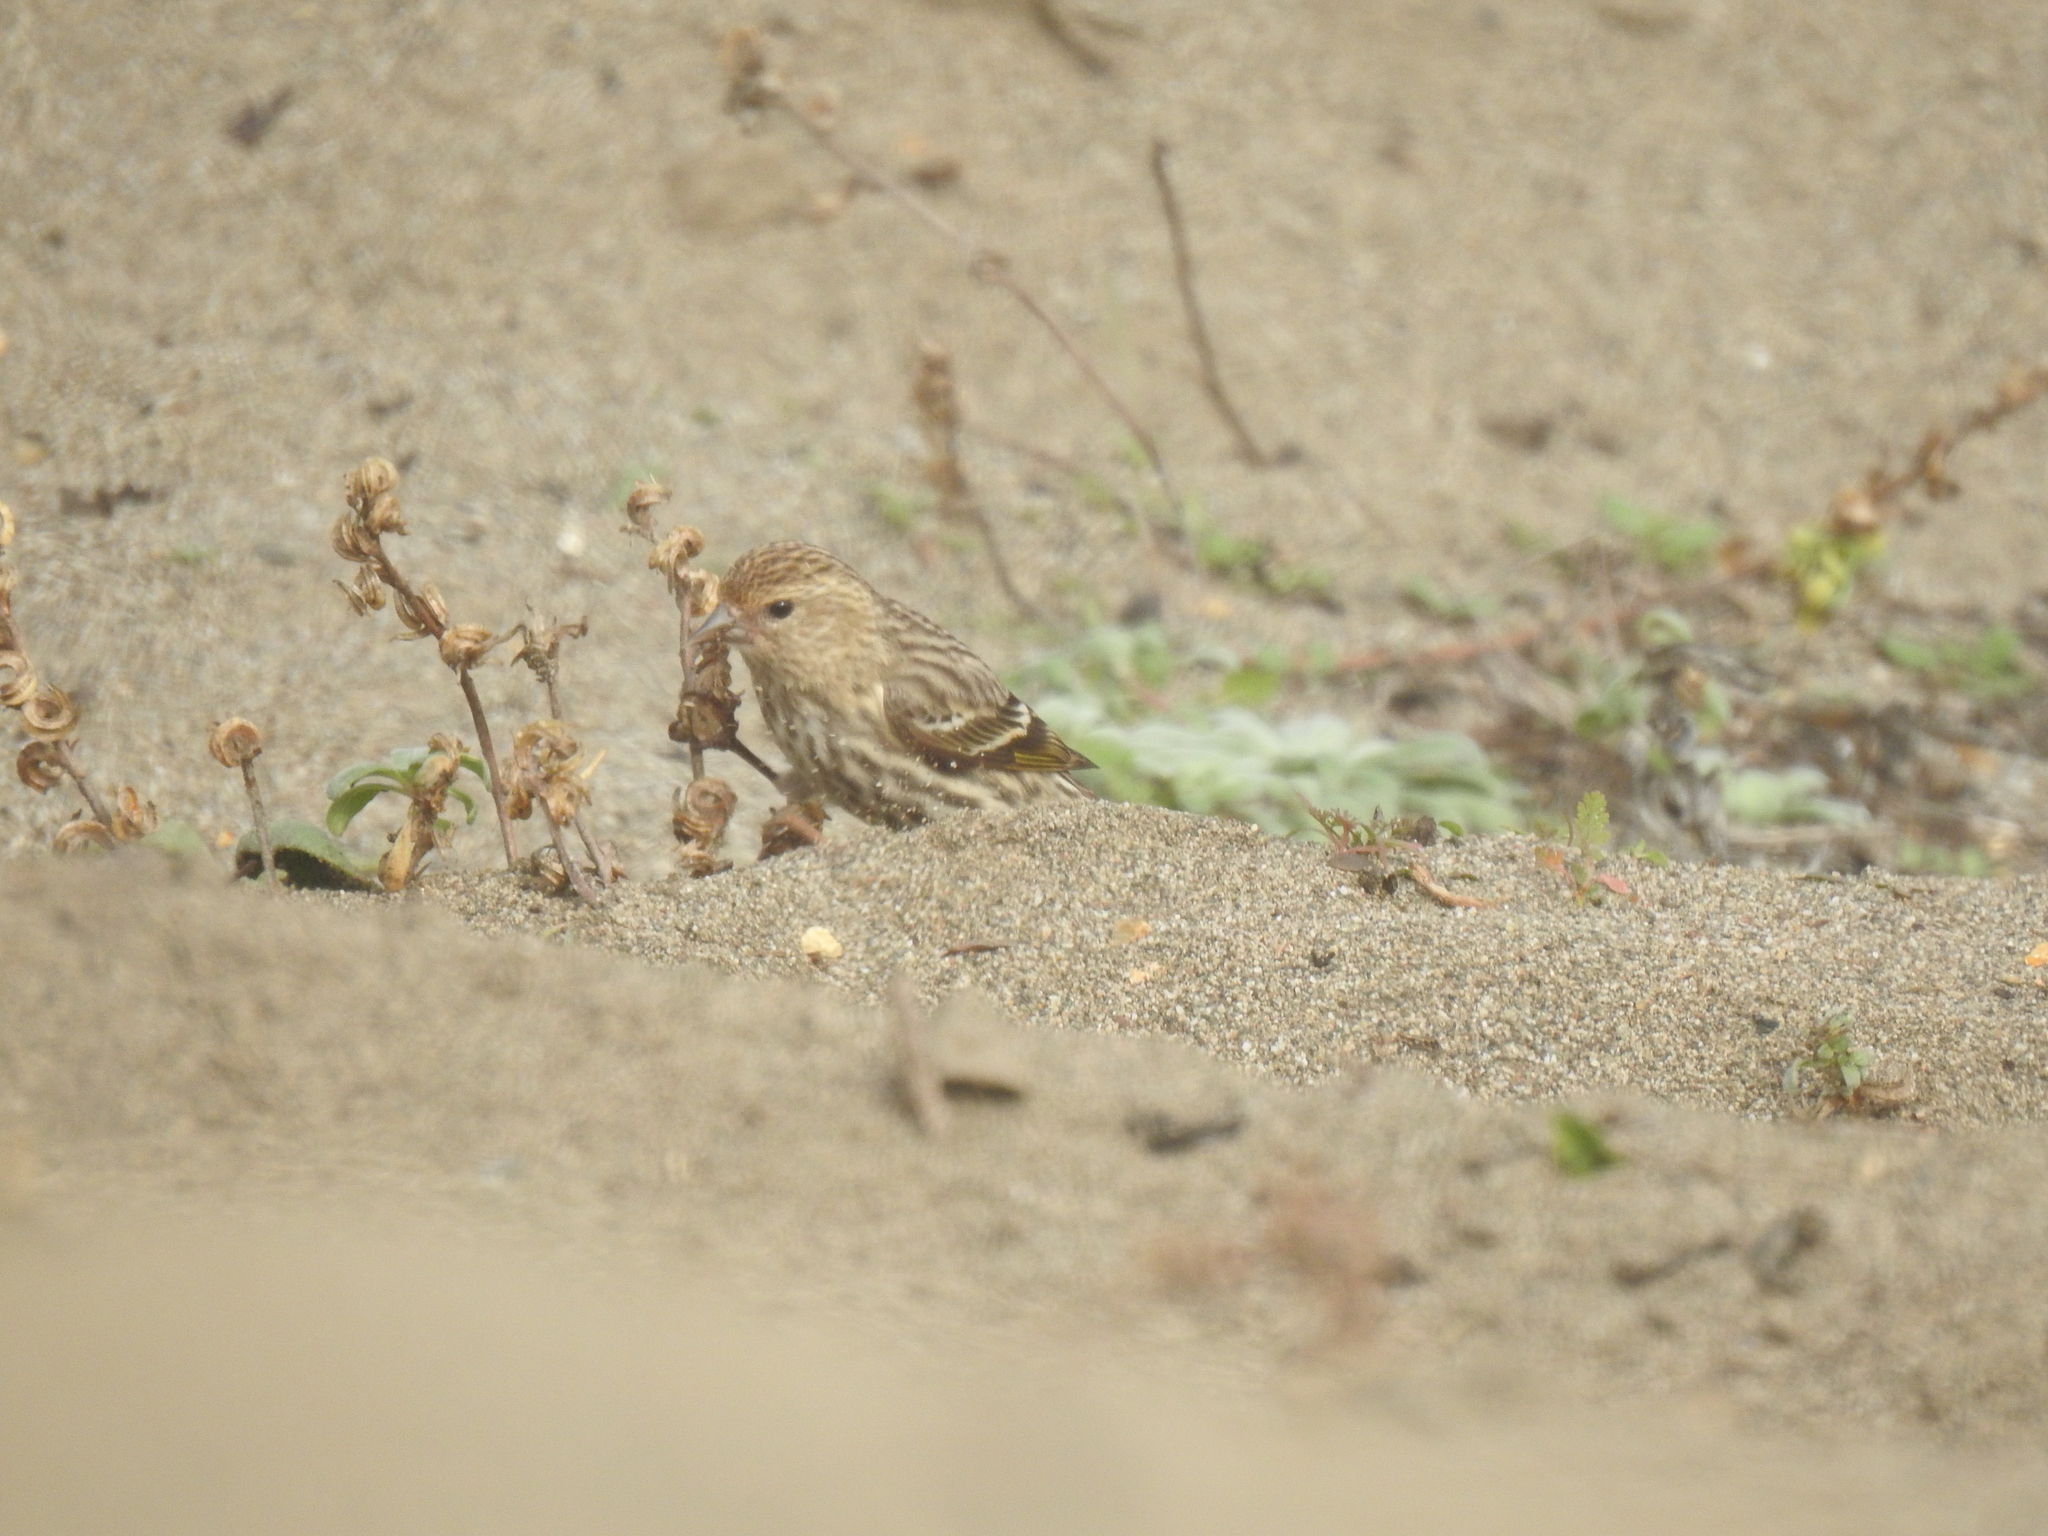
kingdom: Animalia
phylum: Chordata
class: Aves
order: Passeriformes
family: Fringillidae
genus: Spinus
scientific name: Spinus pinus
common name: Pine siskin
